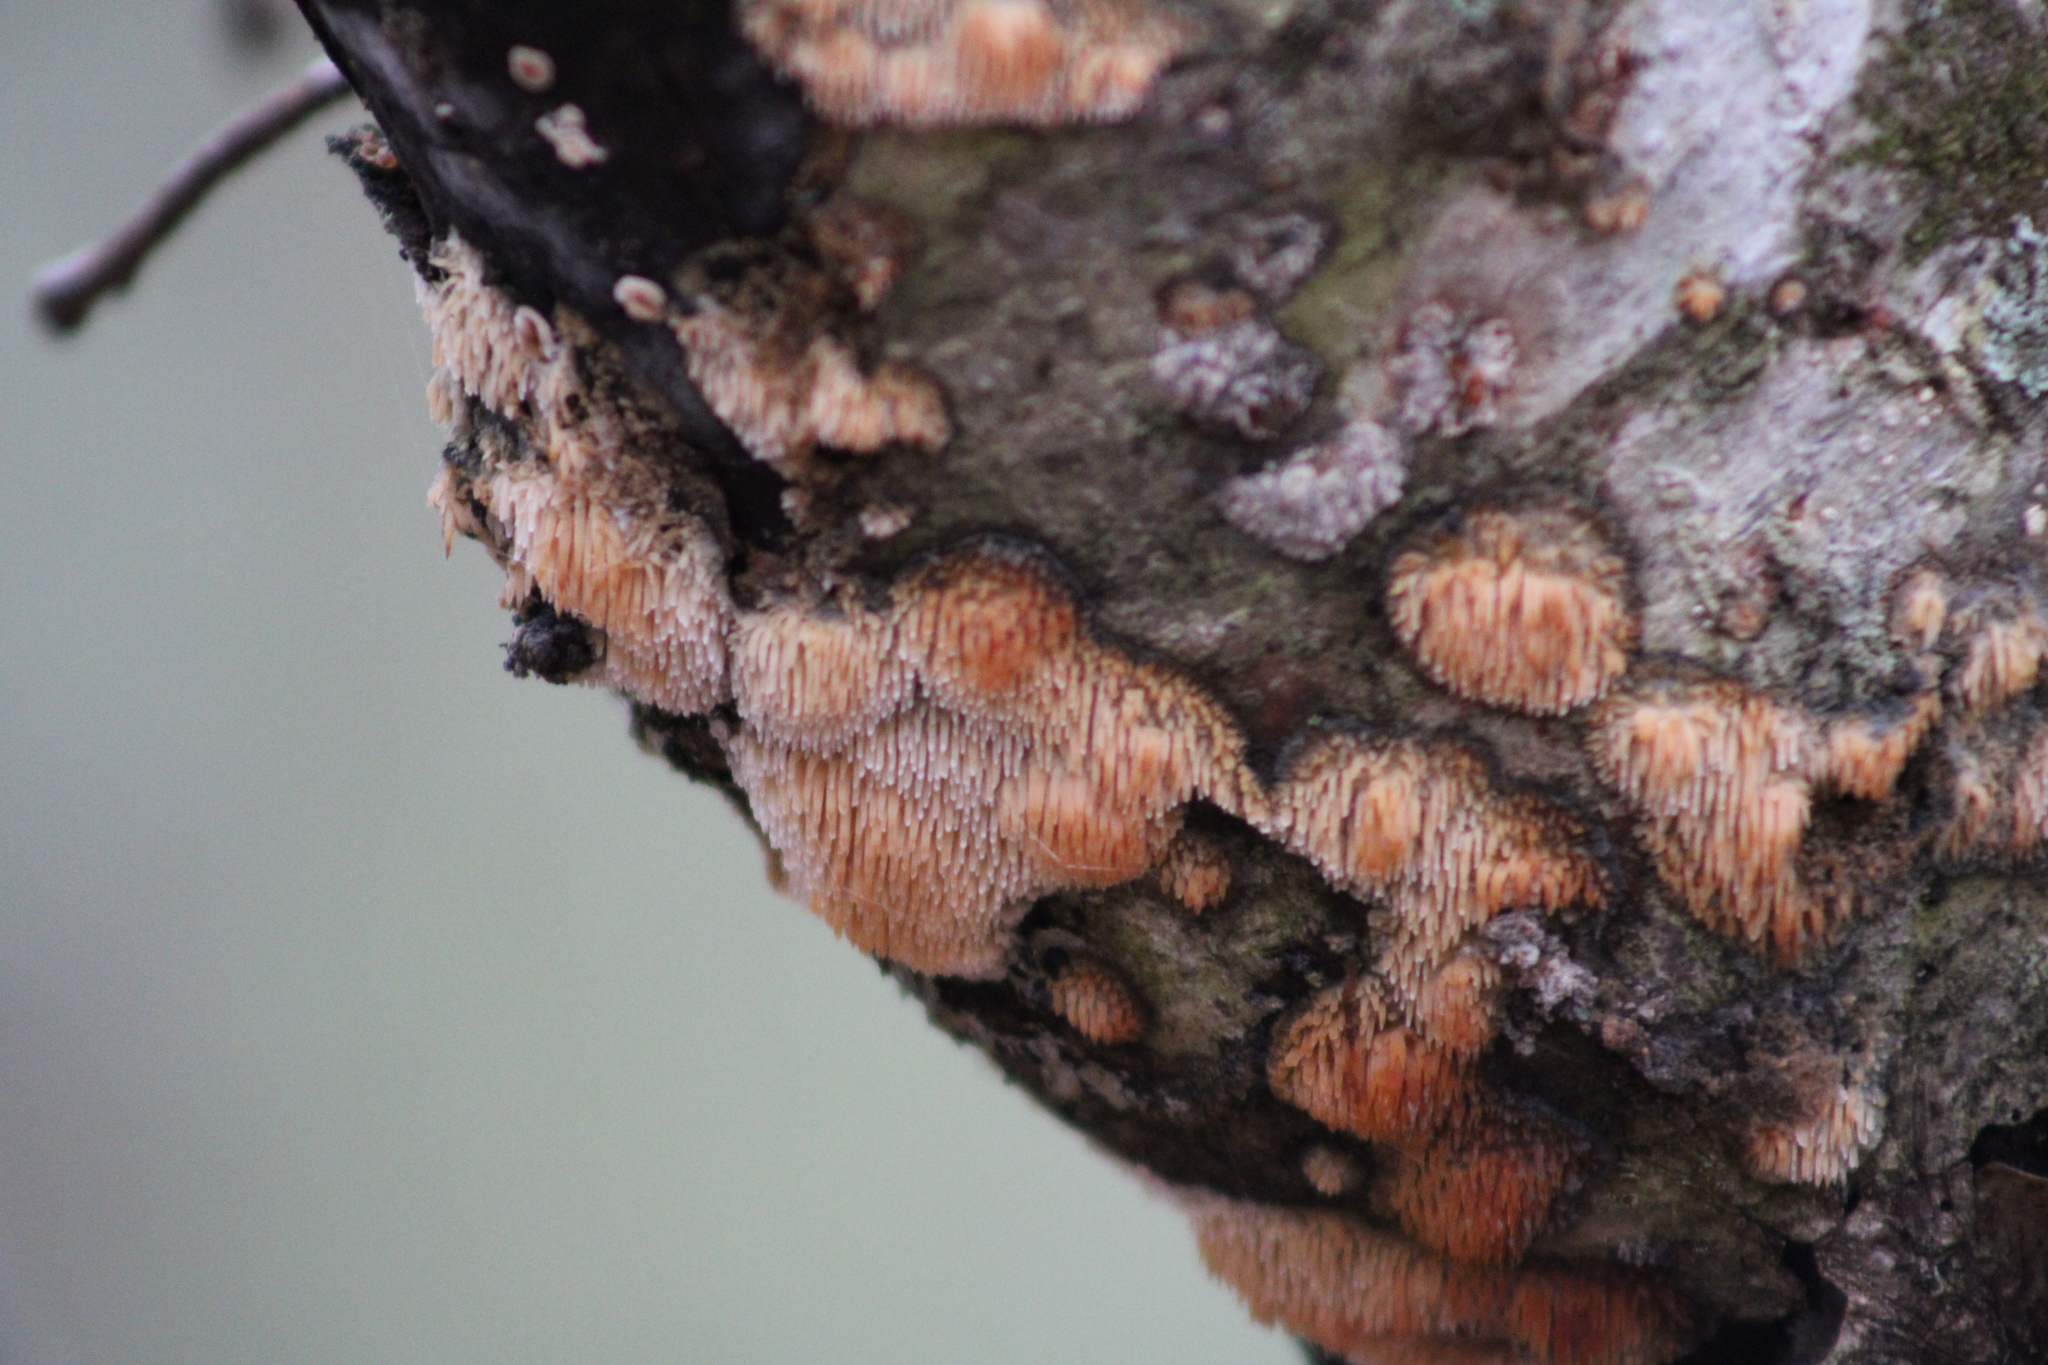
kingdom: Fungi
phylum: Basidiomycota
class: Agaricomycetes
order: Agaricales
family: Radulomycetaceae
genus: Radulomyces
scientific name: Radulomyces copelandii
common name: Asian beauty
